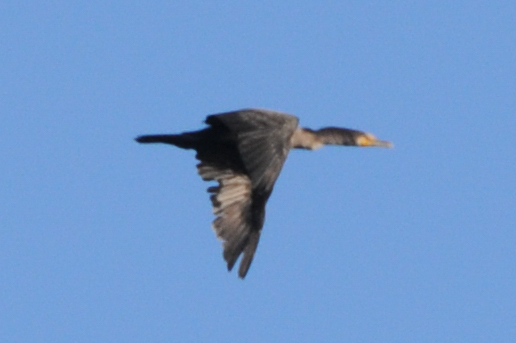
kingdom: Animalia
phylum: Chordata
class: Aves
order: Suliformes
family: Phalacrocoracidae
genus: Phalacrocorax
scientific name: Phalacrocorax auritus
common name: Double-crested cormorant
